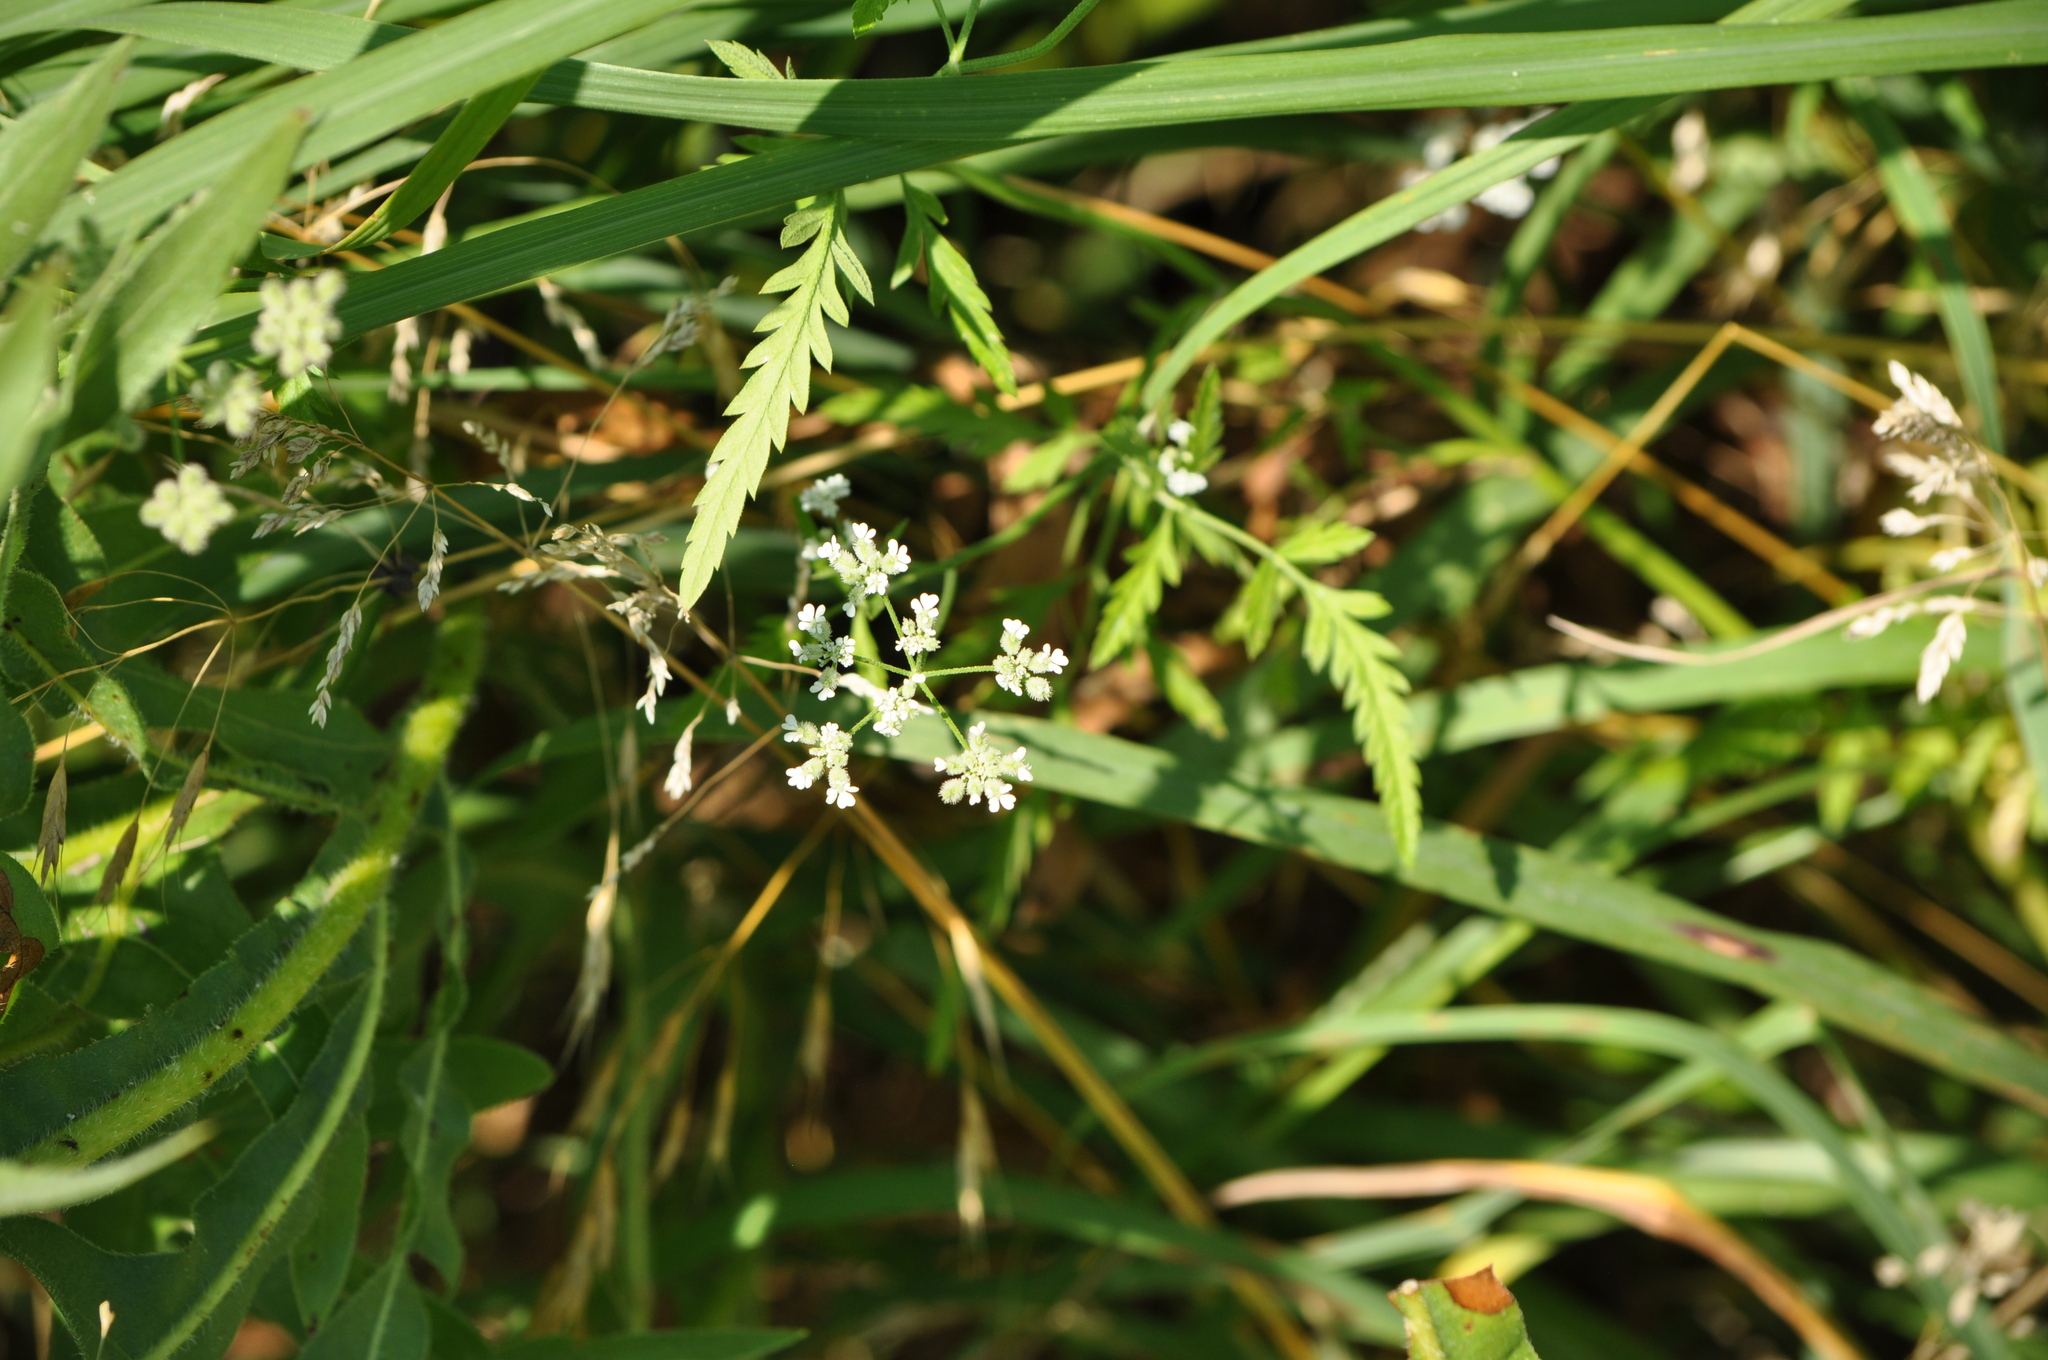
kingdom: Plantae
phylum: Tracheophyta
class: Magnoliopsida
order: Apiales
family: Apiaceae
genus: Torilis
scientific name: Torilis arvensis
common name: Spreading hedge-parsley
